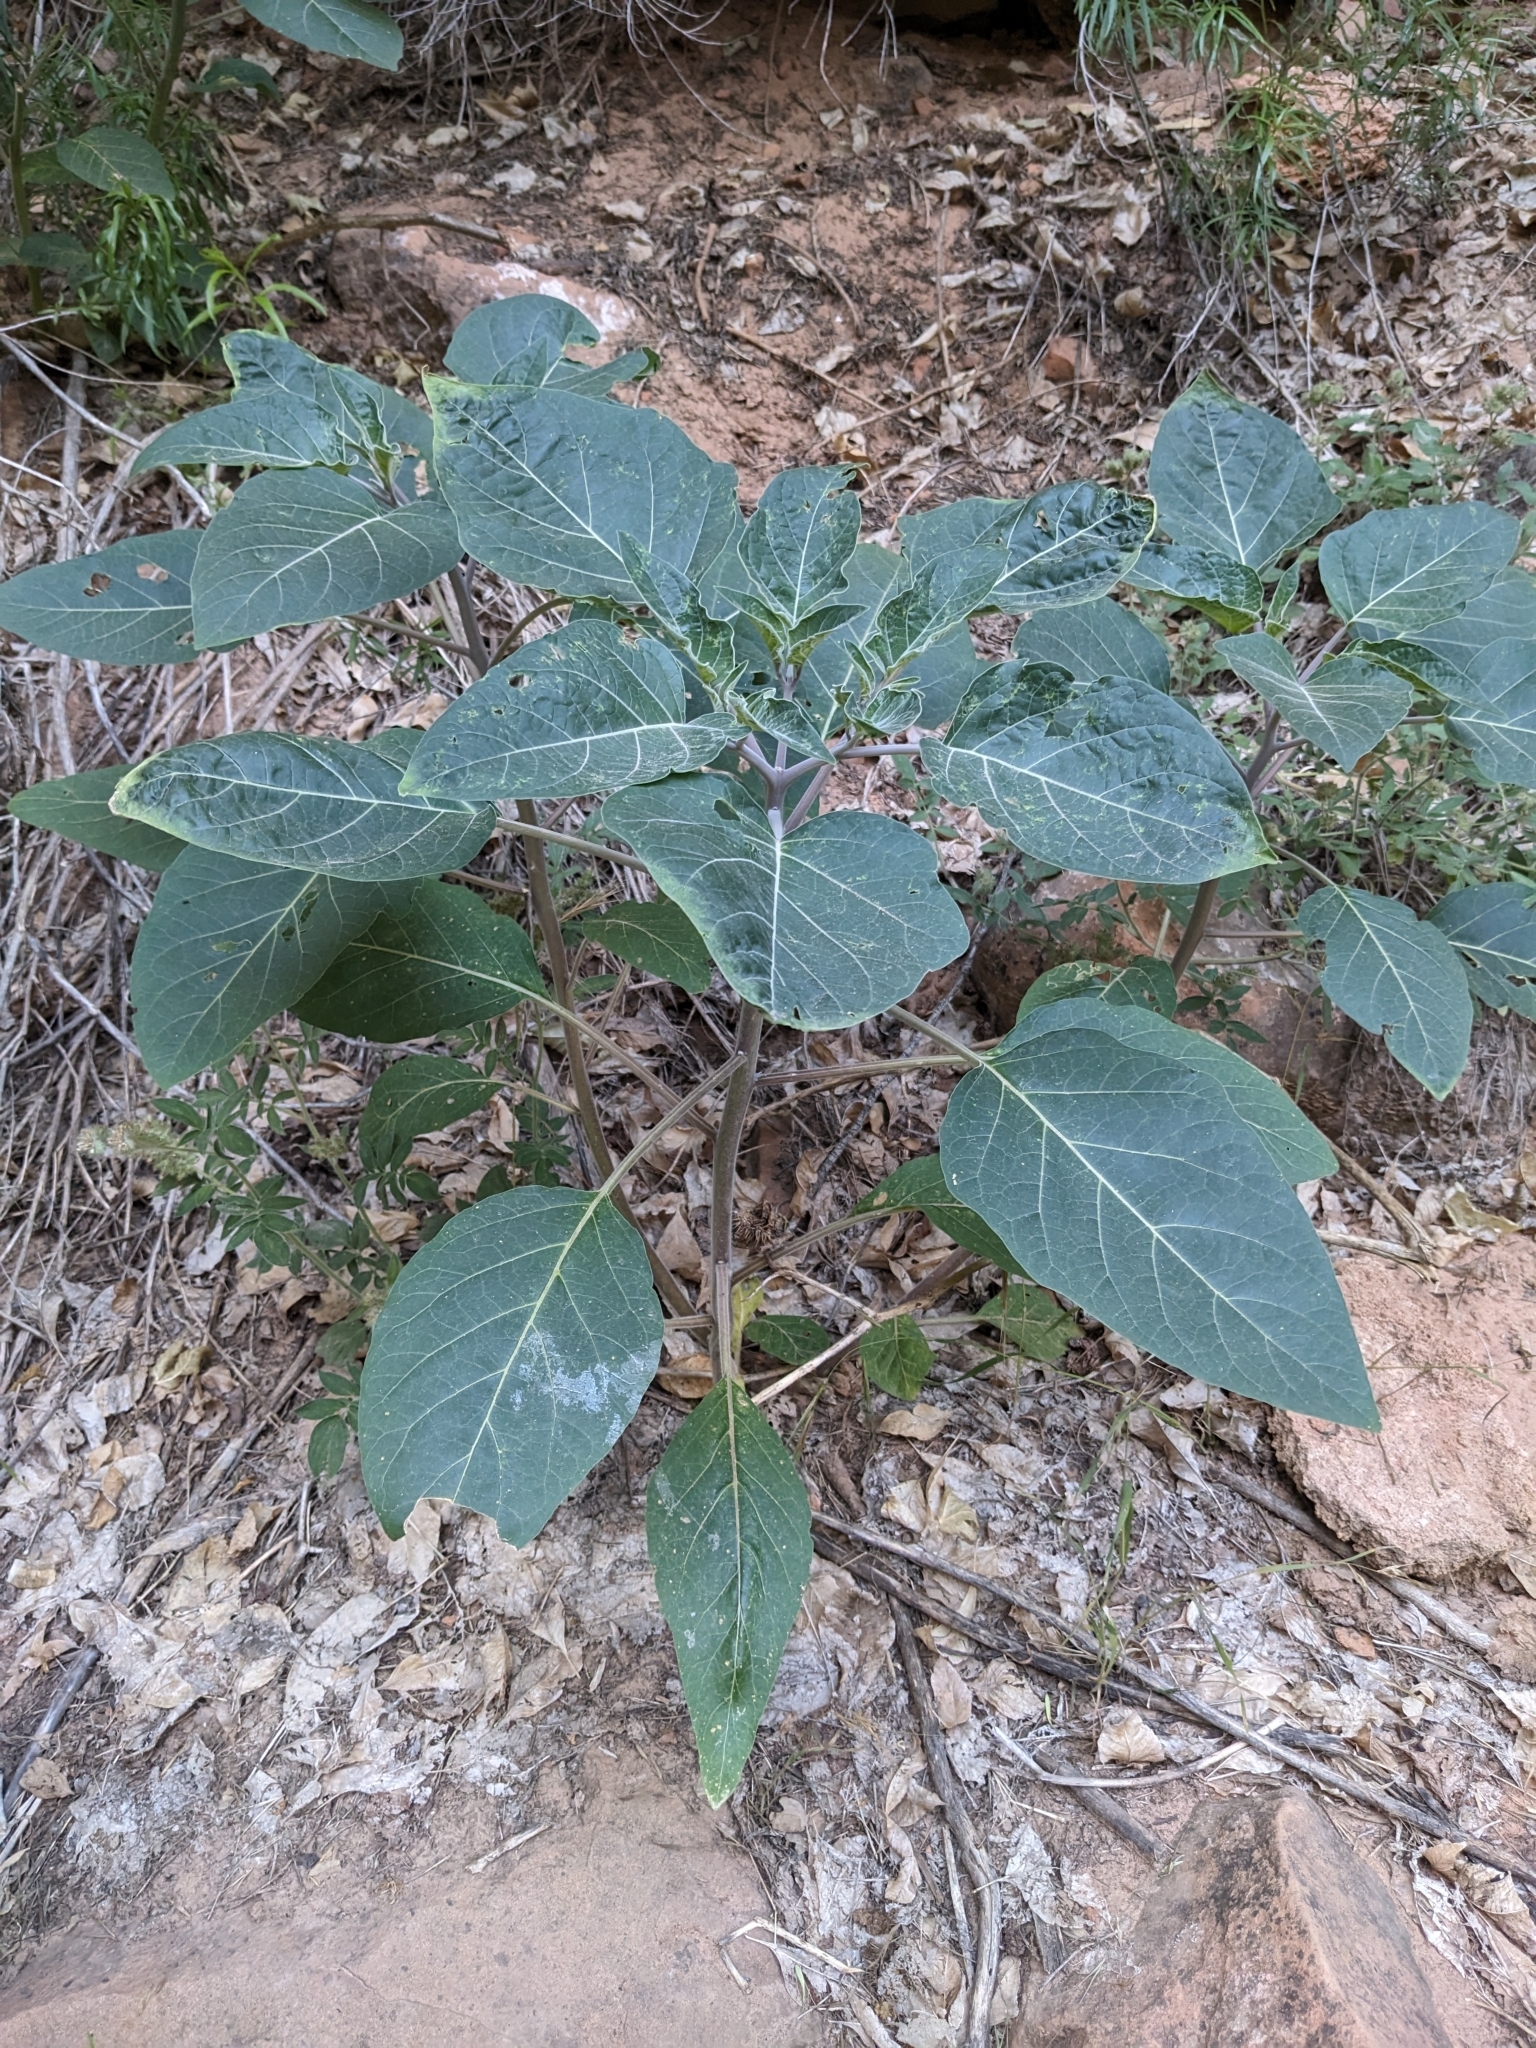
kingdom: Plantae
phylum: Tracheophyta
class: Magnoliopsida
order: Solanales
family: Solanaceae
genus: Datura
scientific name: Datura wrightii
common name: Sacred thorn-apple
